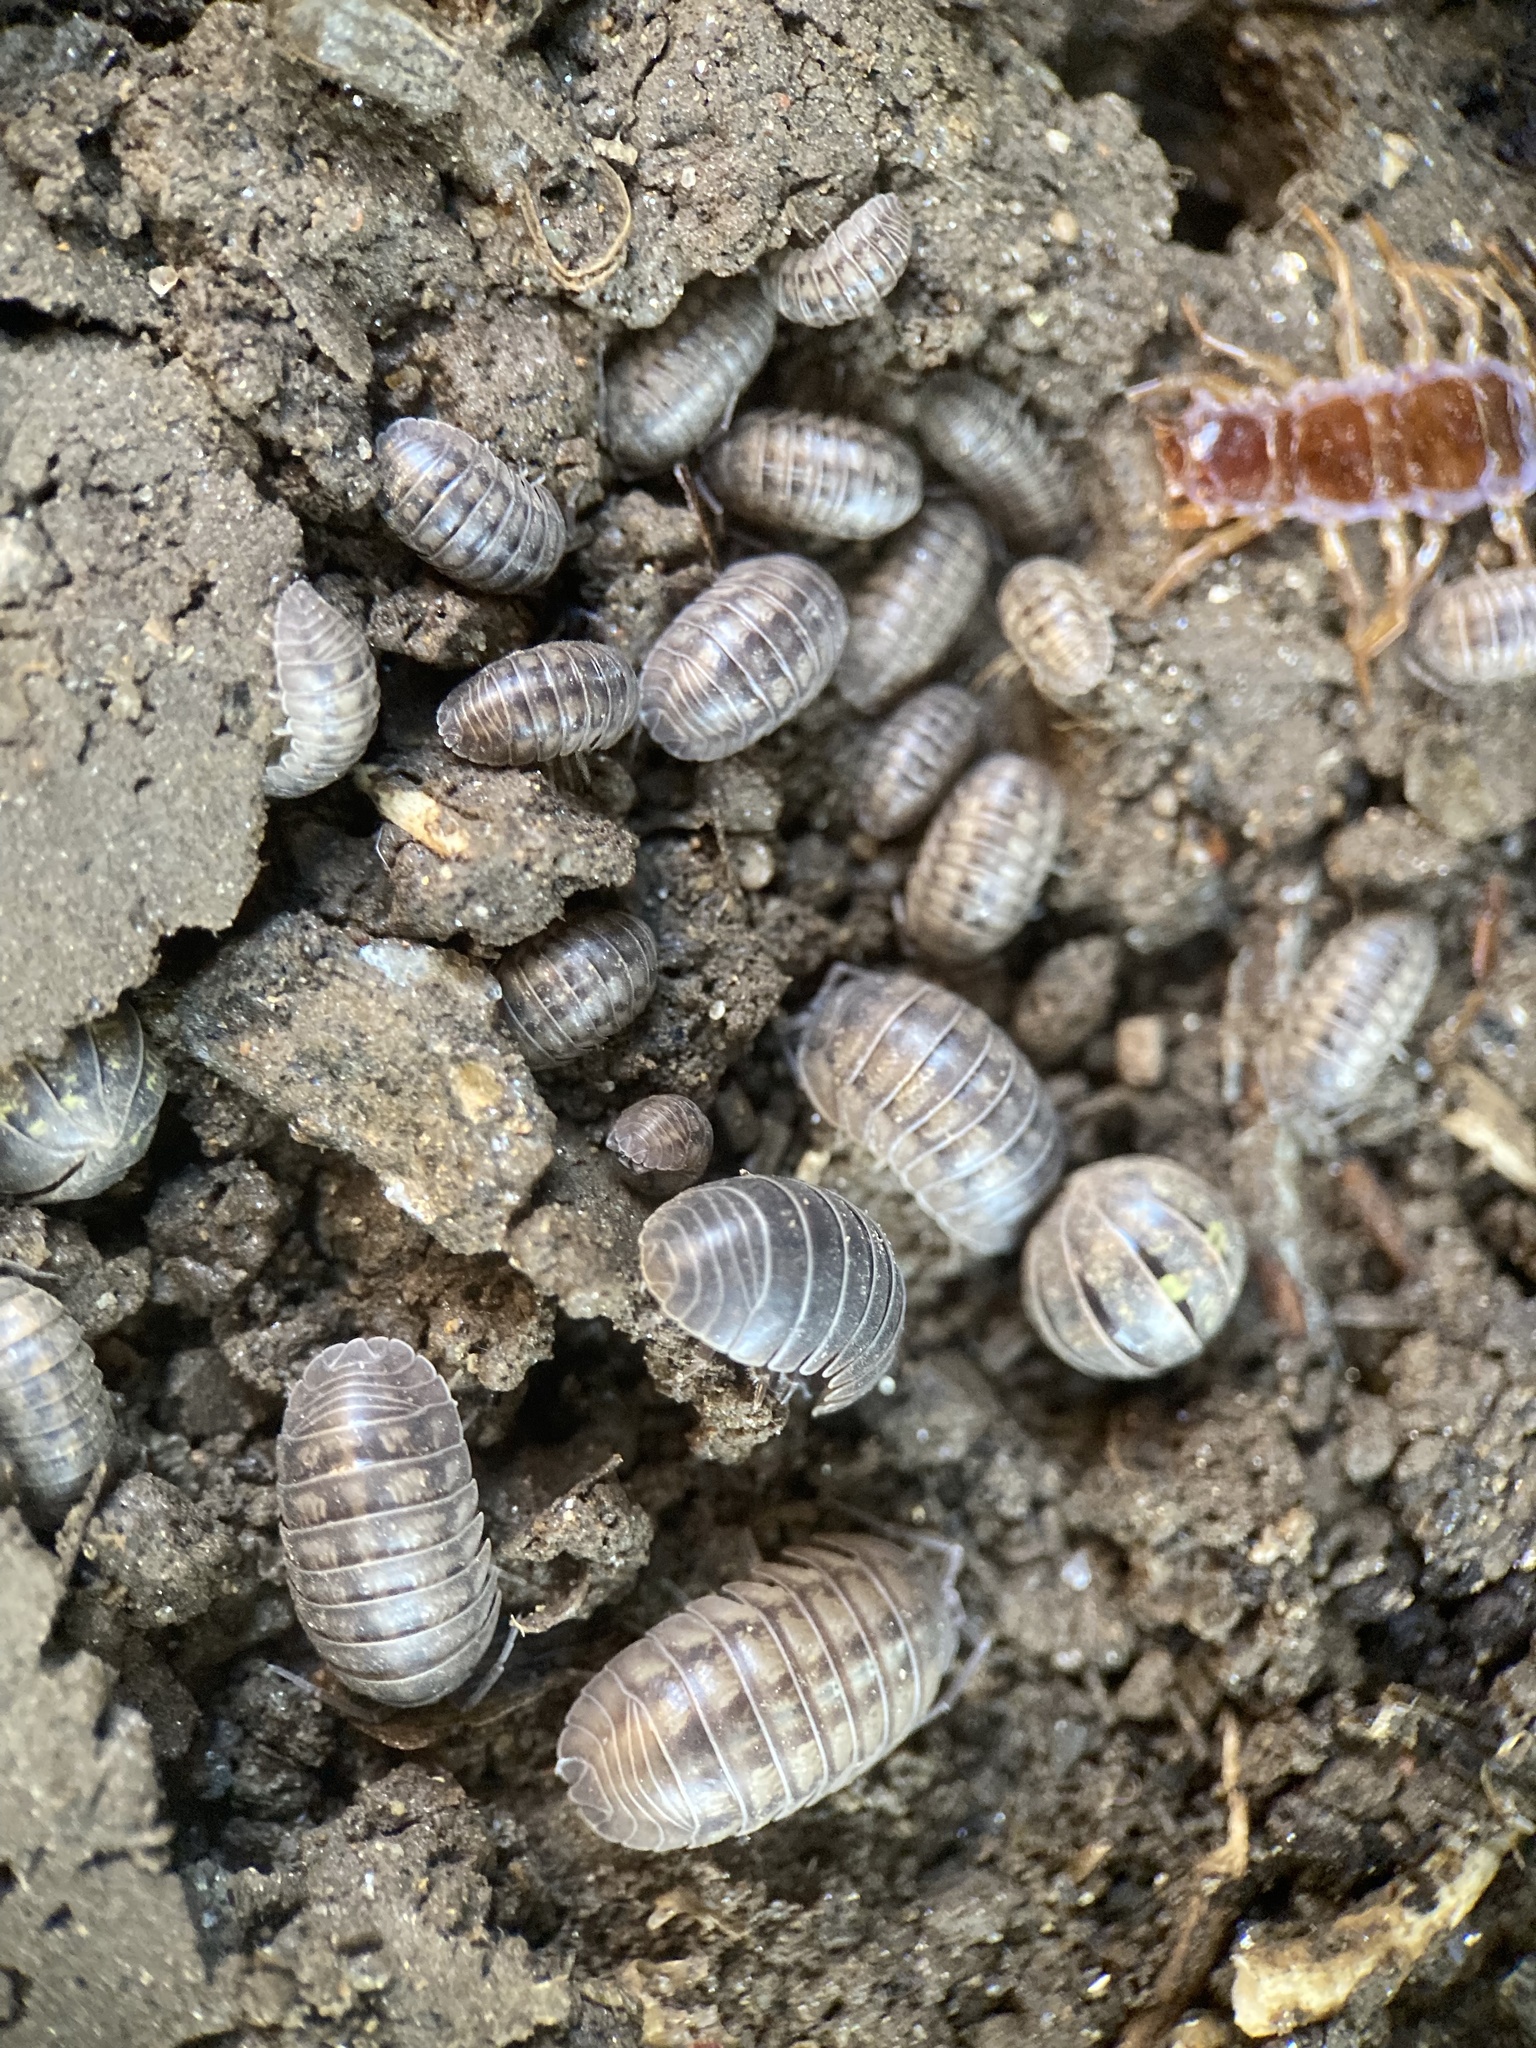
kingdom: Animalia
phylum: Arthropoda
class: Malacostraca
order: Isopoda
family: Armadillidiidae
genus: Armadillidium
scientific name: Armadillidium nasatum
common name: Isopod
